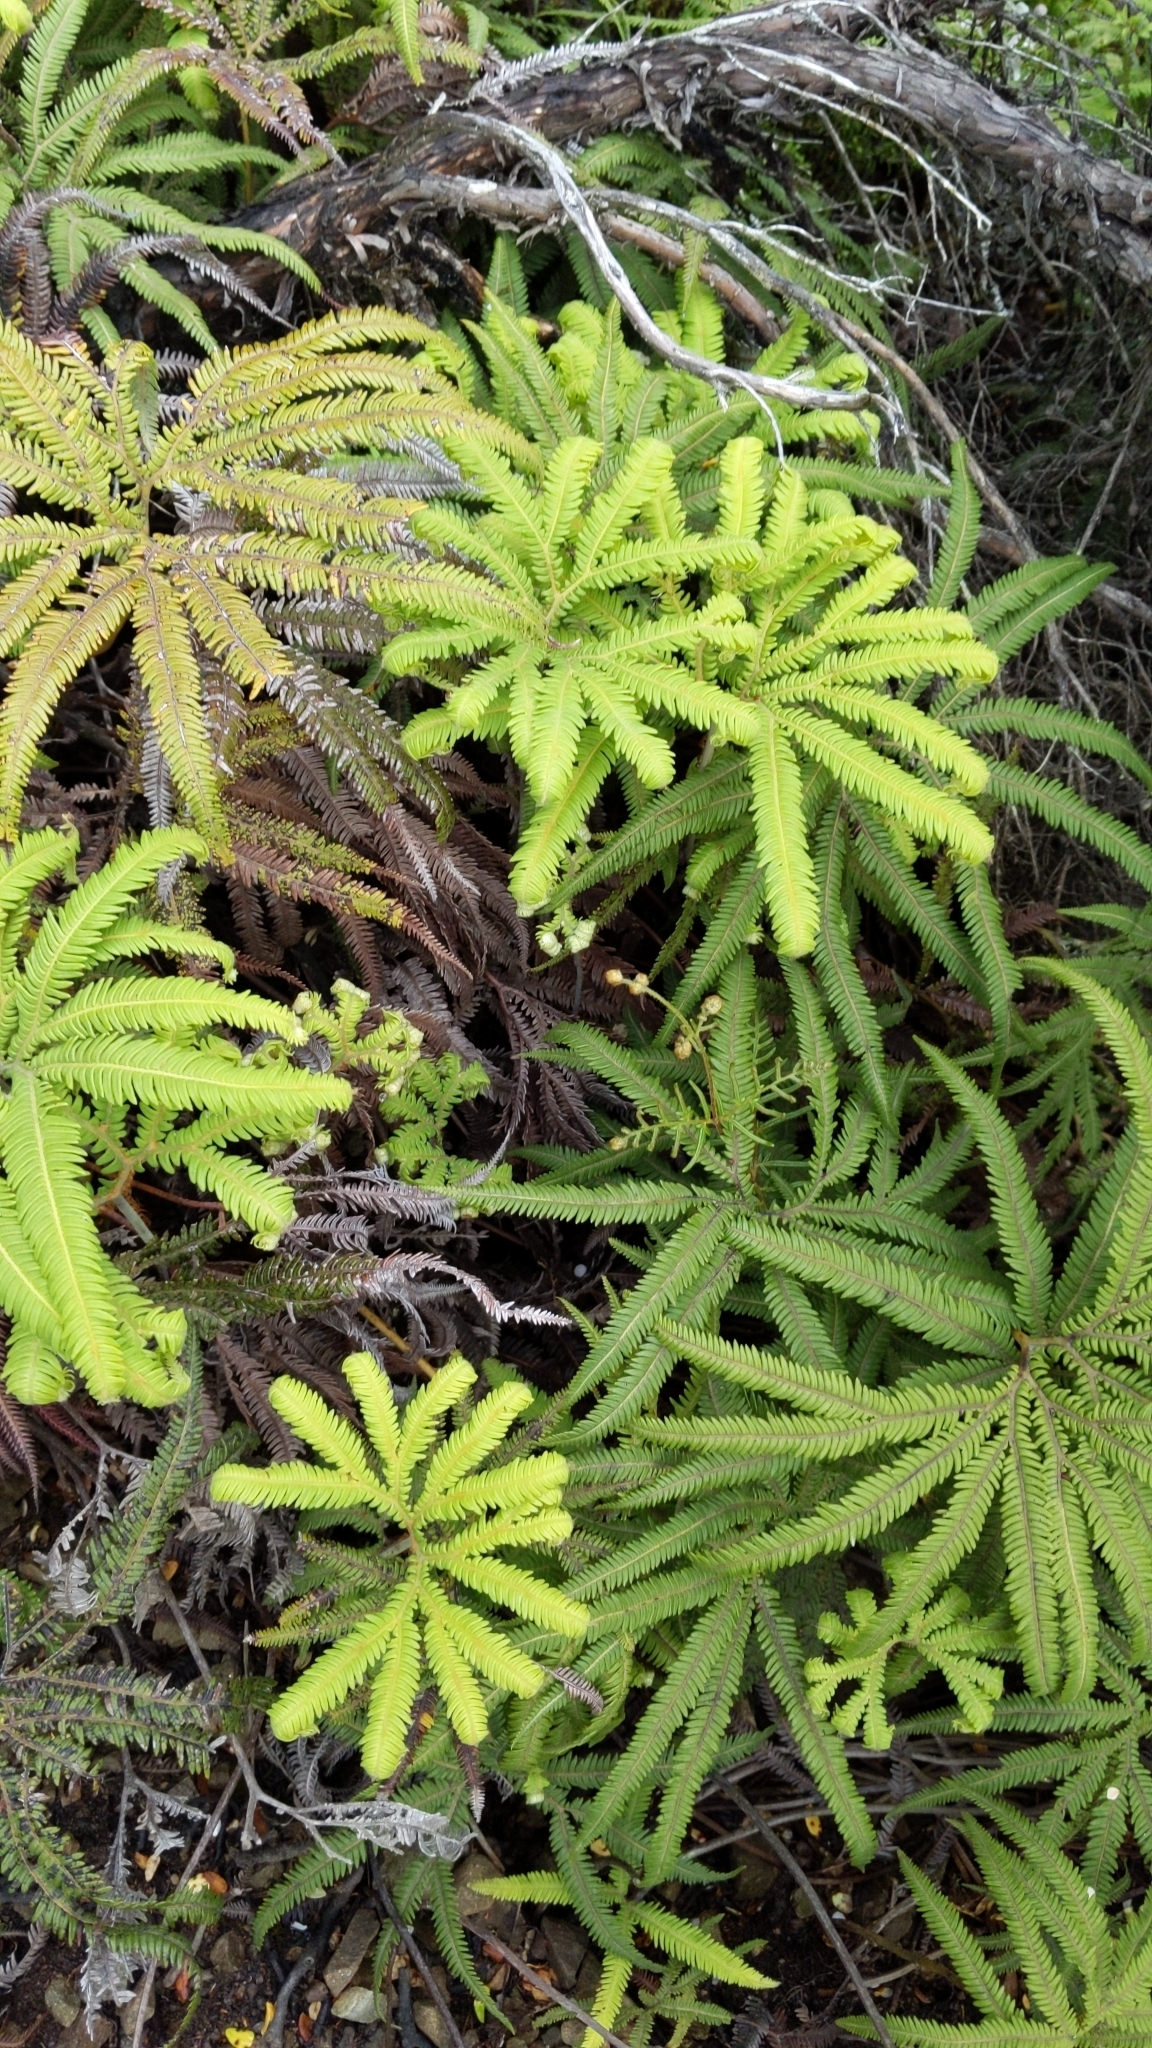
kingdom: Plantae
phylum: Tracheophyta
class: Polypodiopsida
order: Gleicheniales
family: Gleicheniaceae
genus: Sticherus
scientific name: Sticherus cunninghamii
